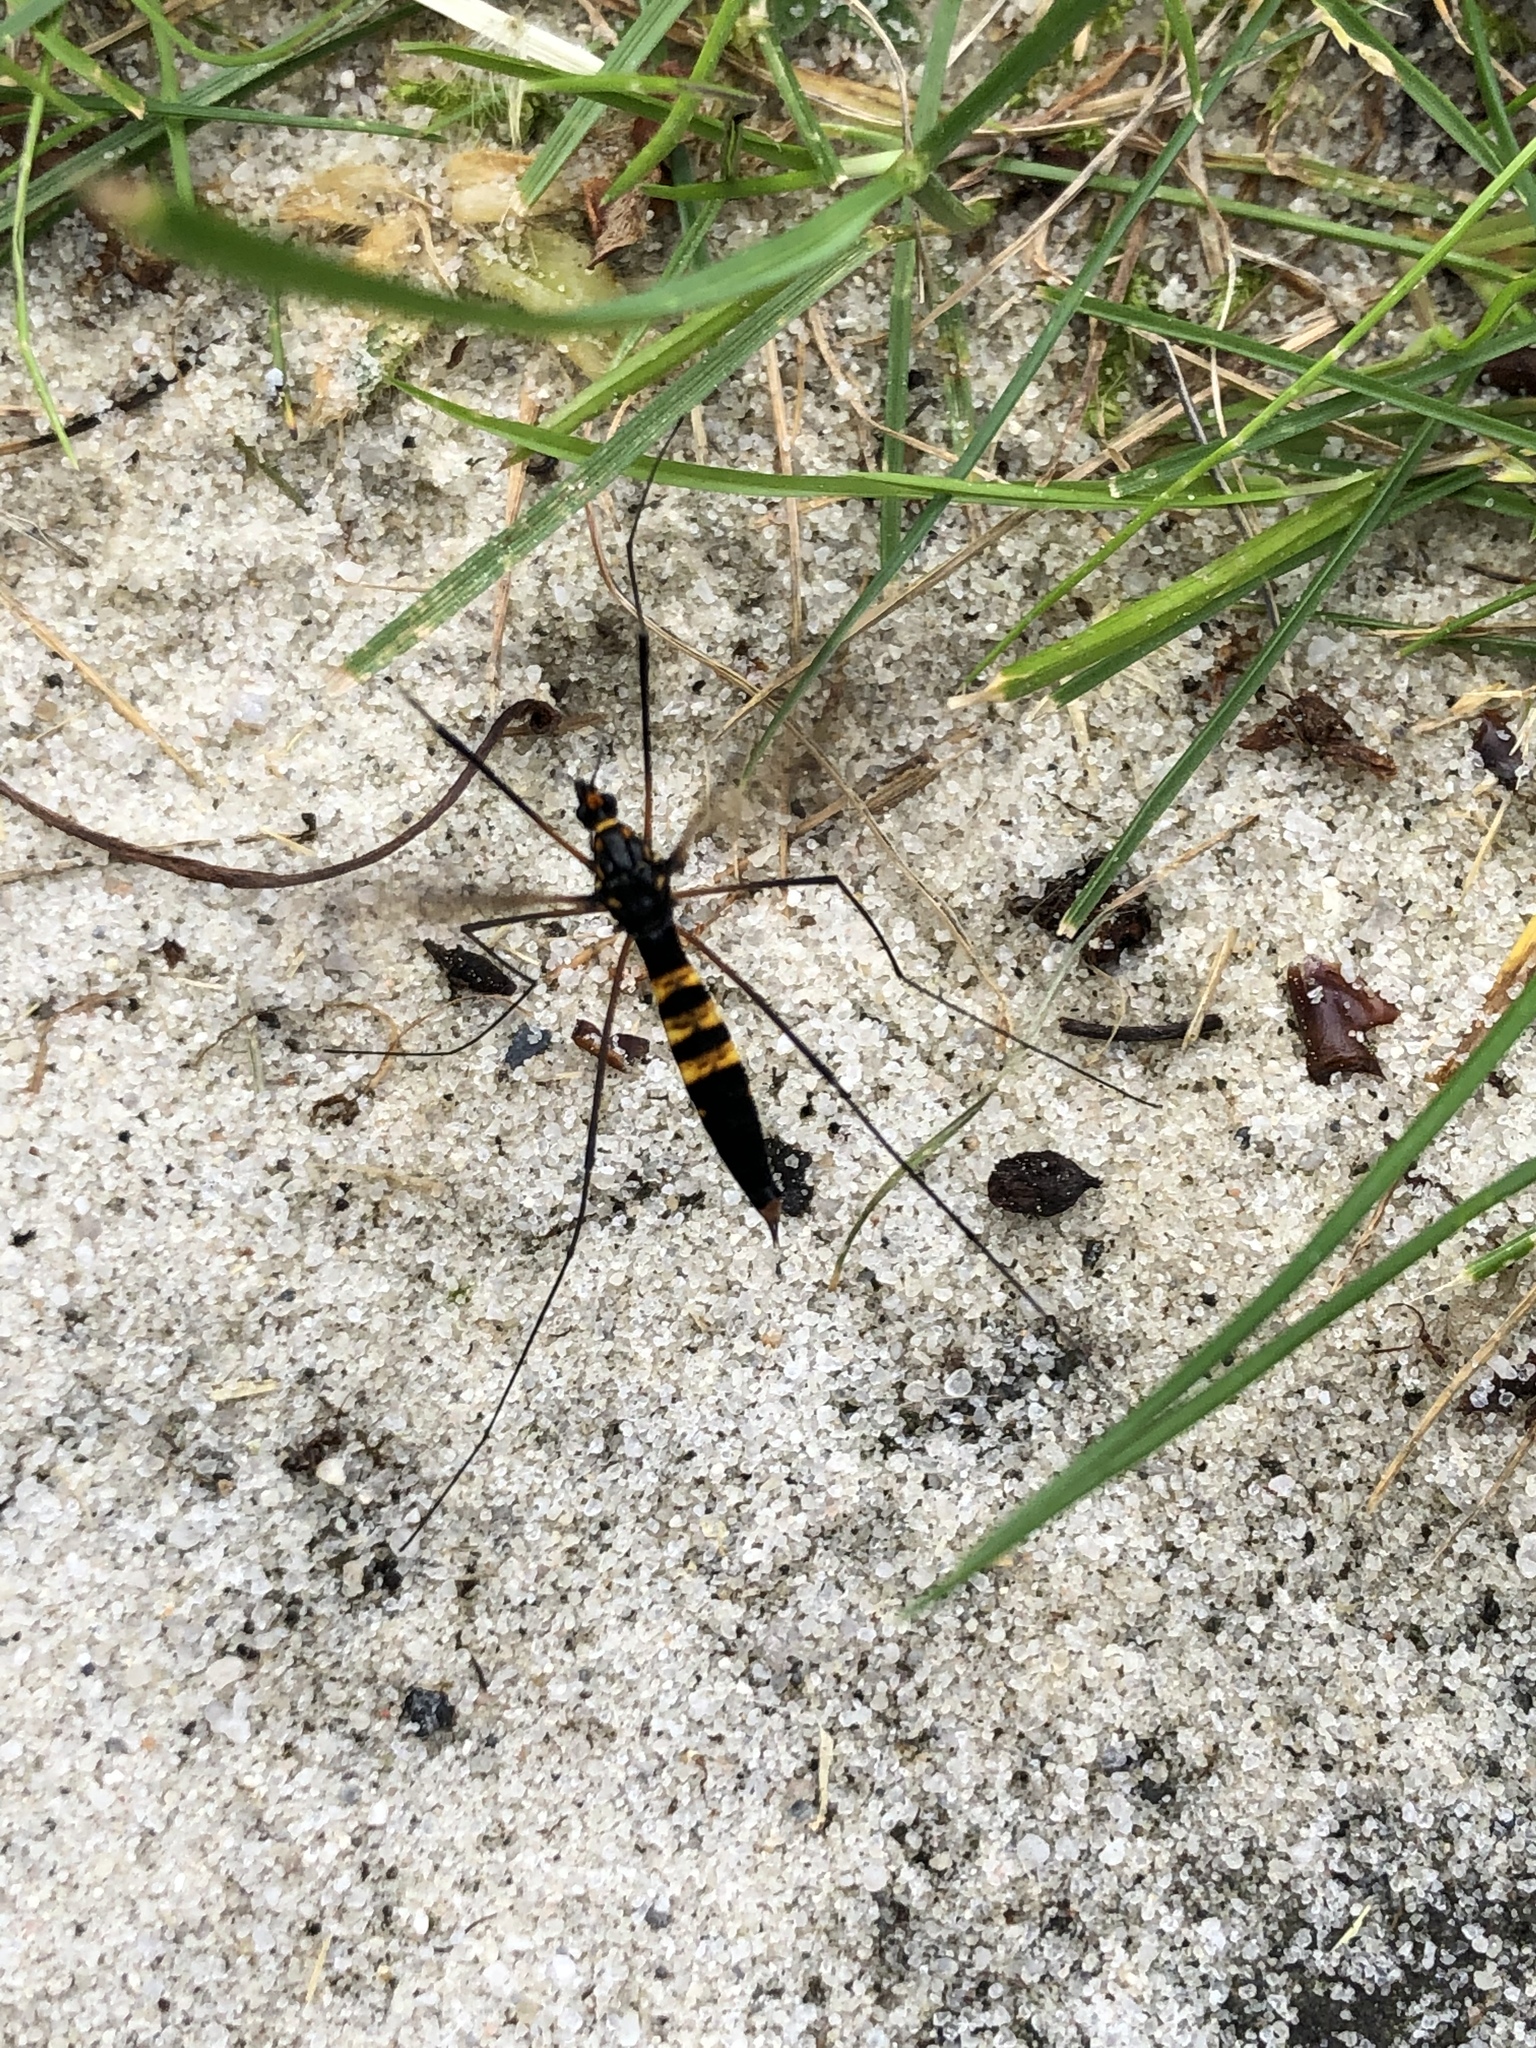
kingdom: Animalia
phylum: Arthropoda
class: Insecta
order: Diptera
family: Tipulidae
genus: Nephrotoma
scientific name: Nephrotoma crocata
